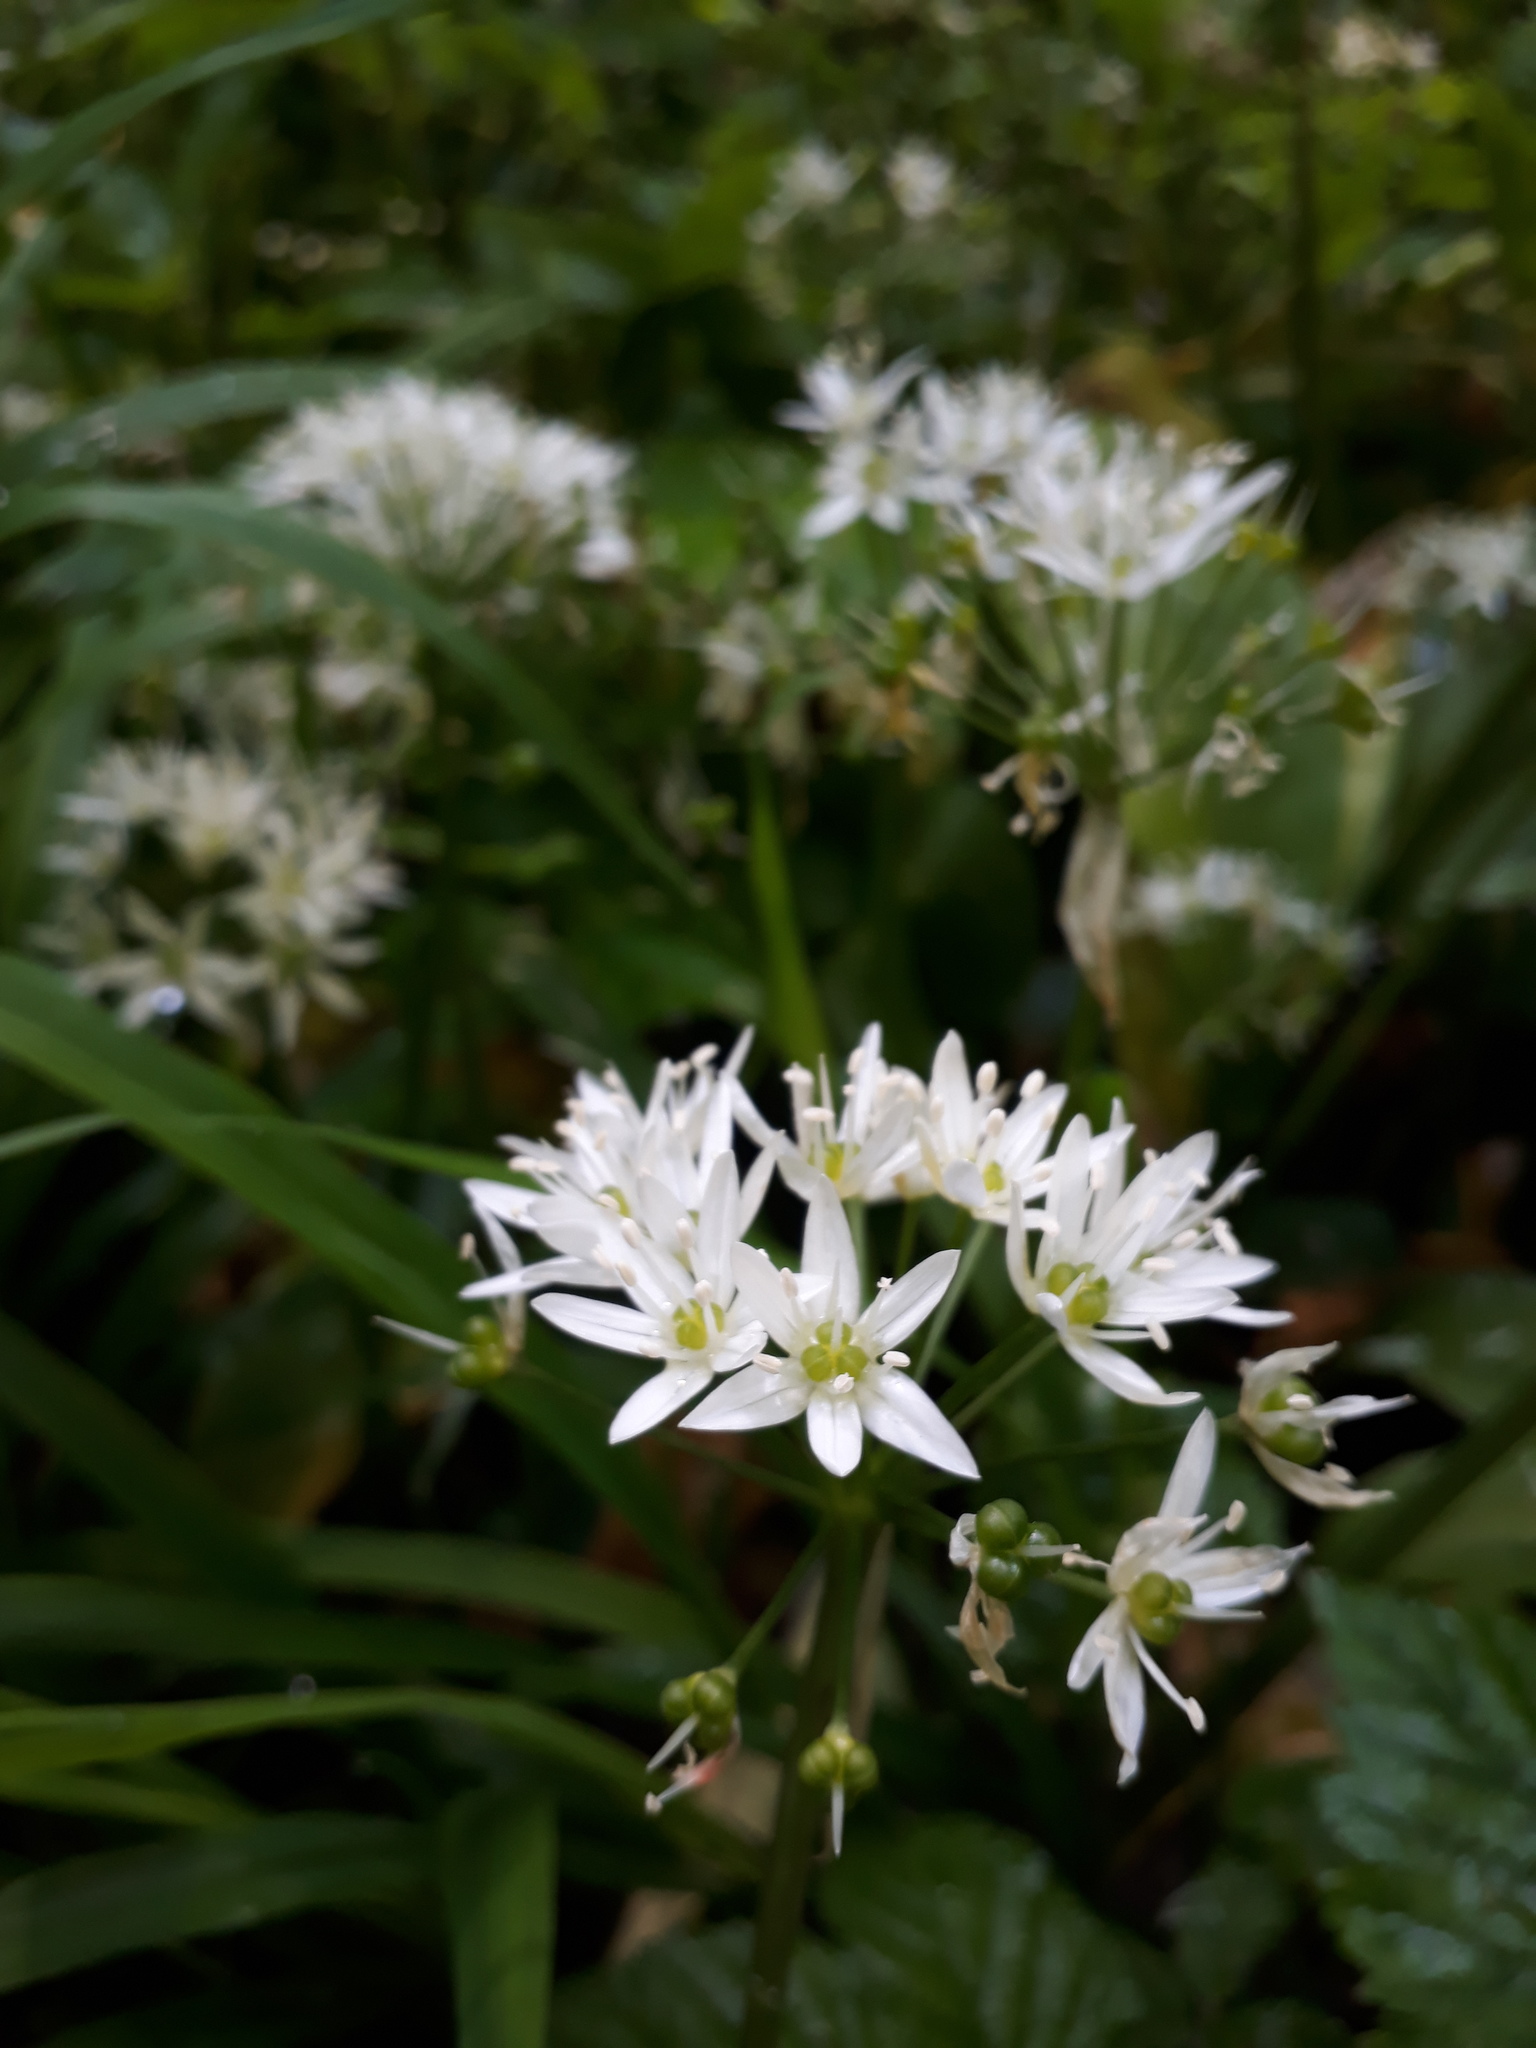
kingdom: Plantae
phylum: Tracheophyta
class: Liliopsida
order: Asparagales
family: Amaryllidaceae
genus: Allium
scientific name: Allium ursinum
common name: Ramsons
